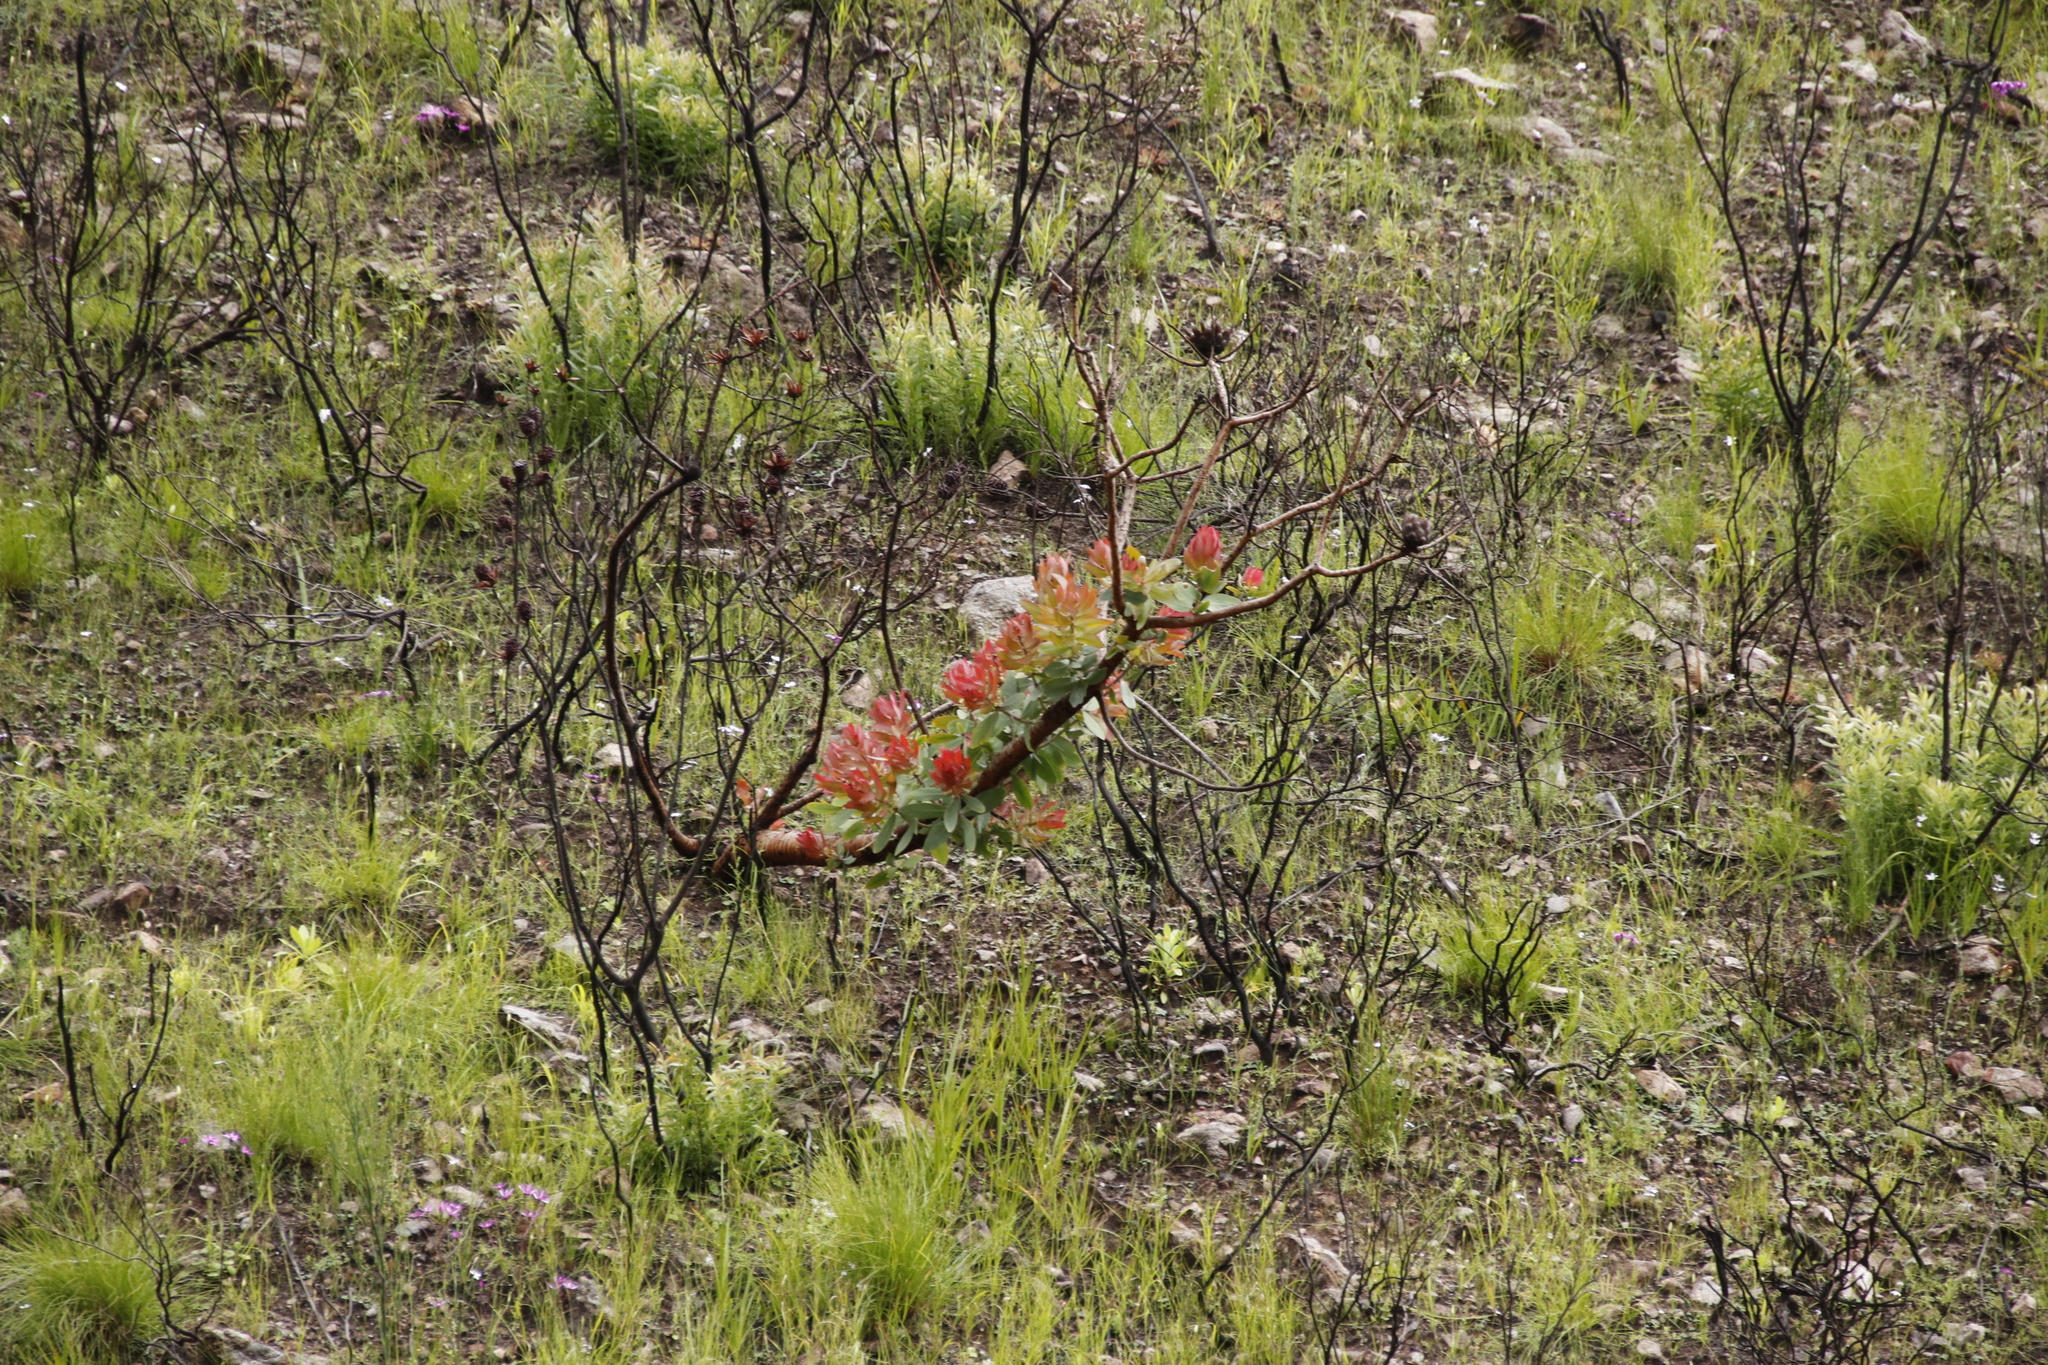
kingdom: Plantae
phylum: Tracheophyta
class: Magnoliopsida
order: Proteales
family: Proteaceae
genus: Protea
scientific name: Protea nitida
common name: Tree protea
